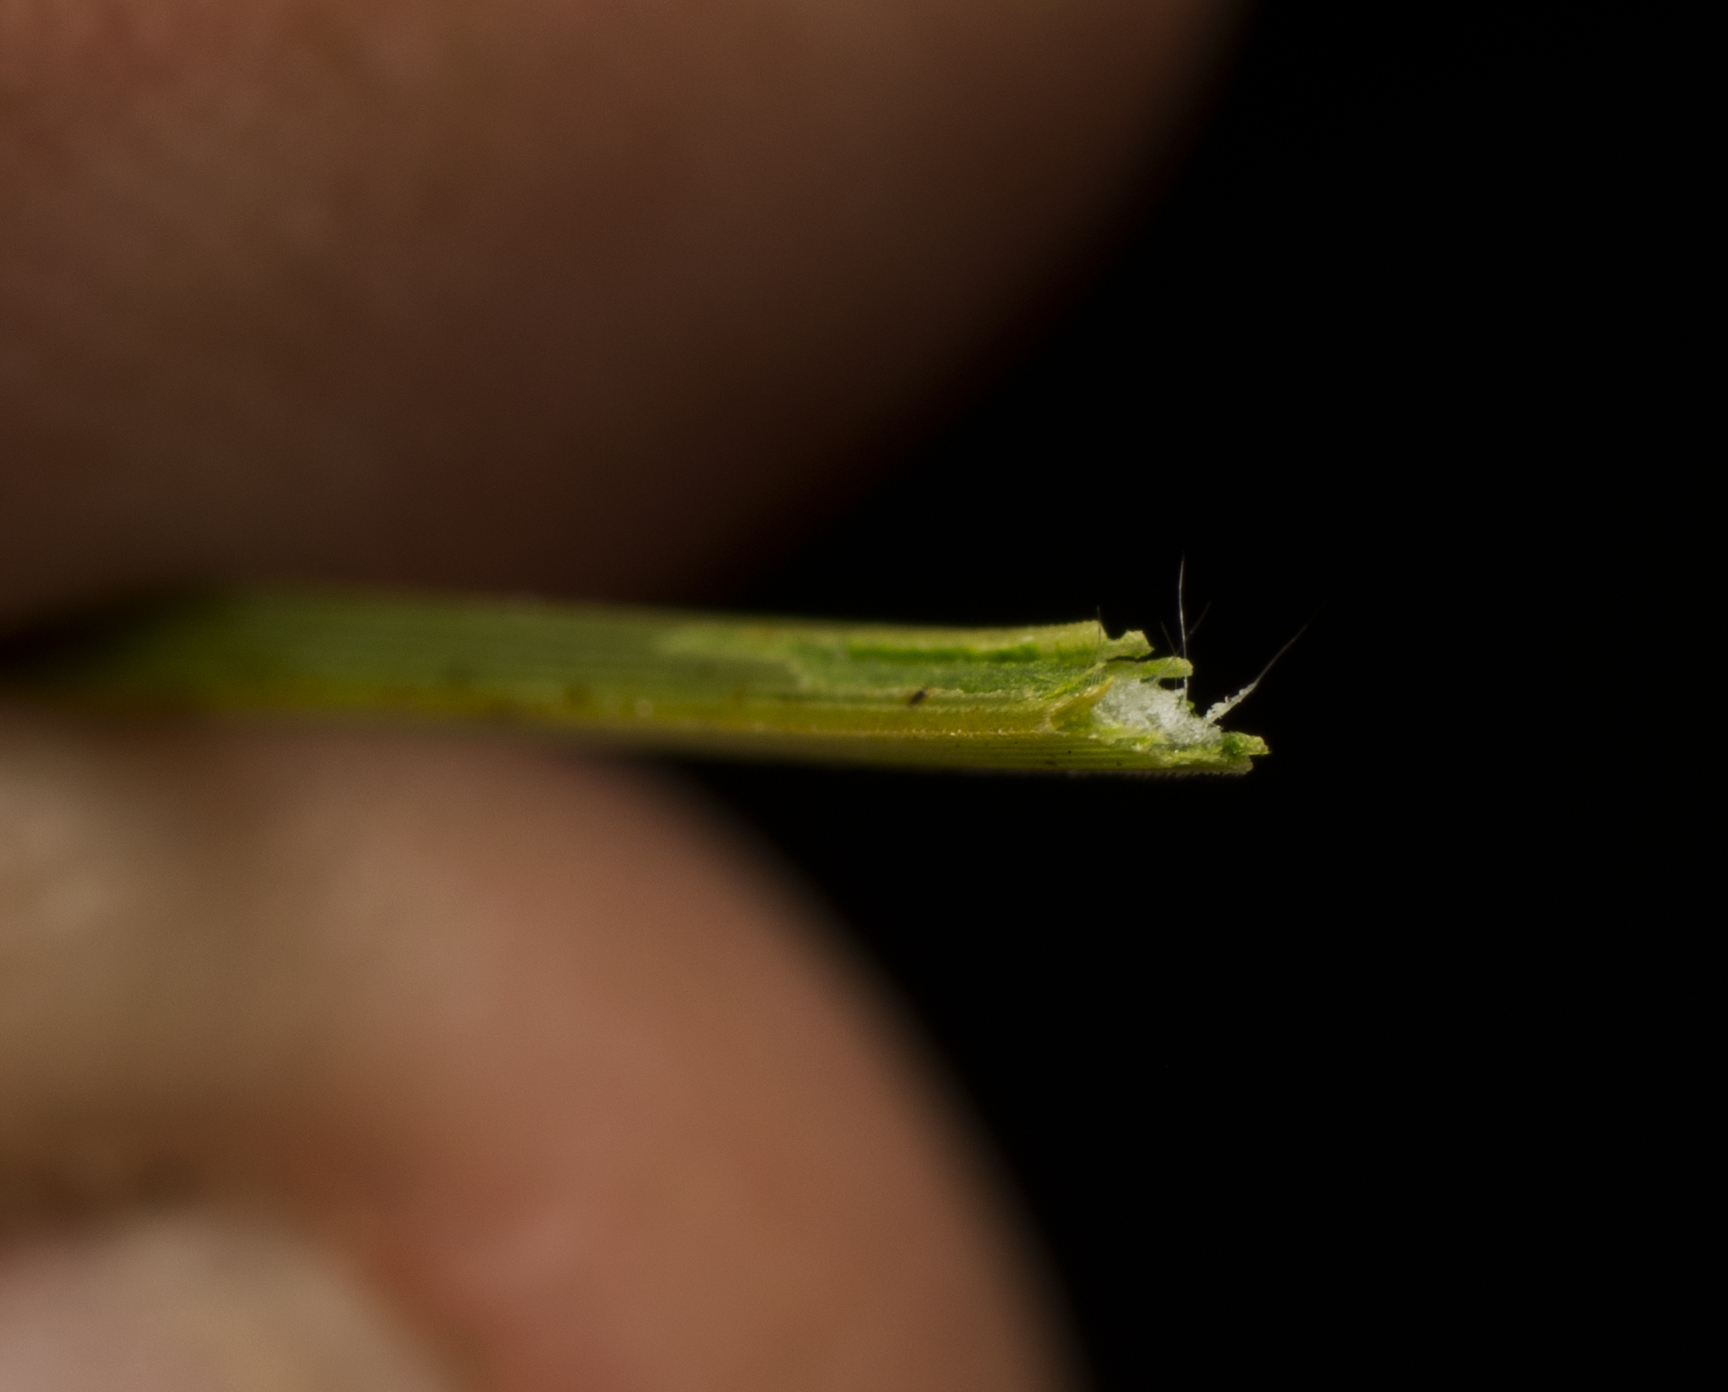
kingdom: Plantae
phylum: Tracheophyta
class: Liliopsida
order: Asparagales
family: Asphodelaceae
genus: Xanthorrhoea
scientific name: Xanthorrhoea fulva
